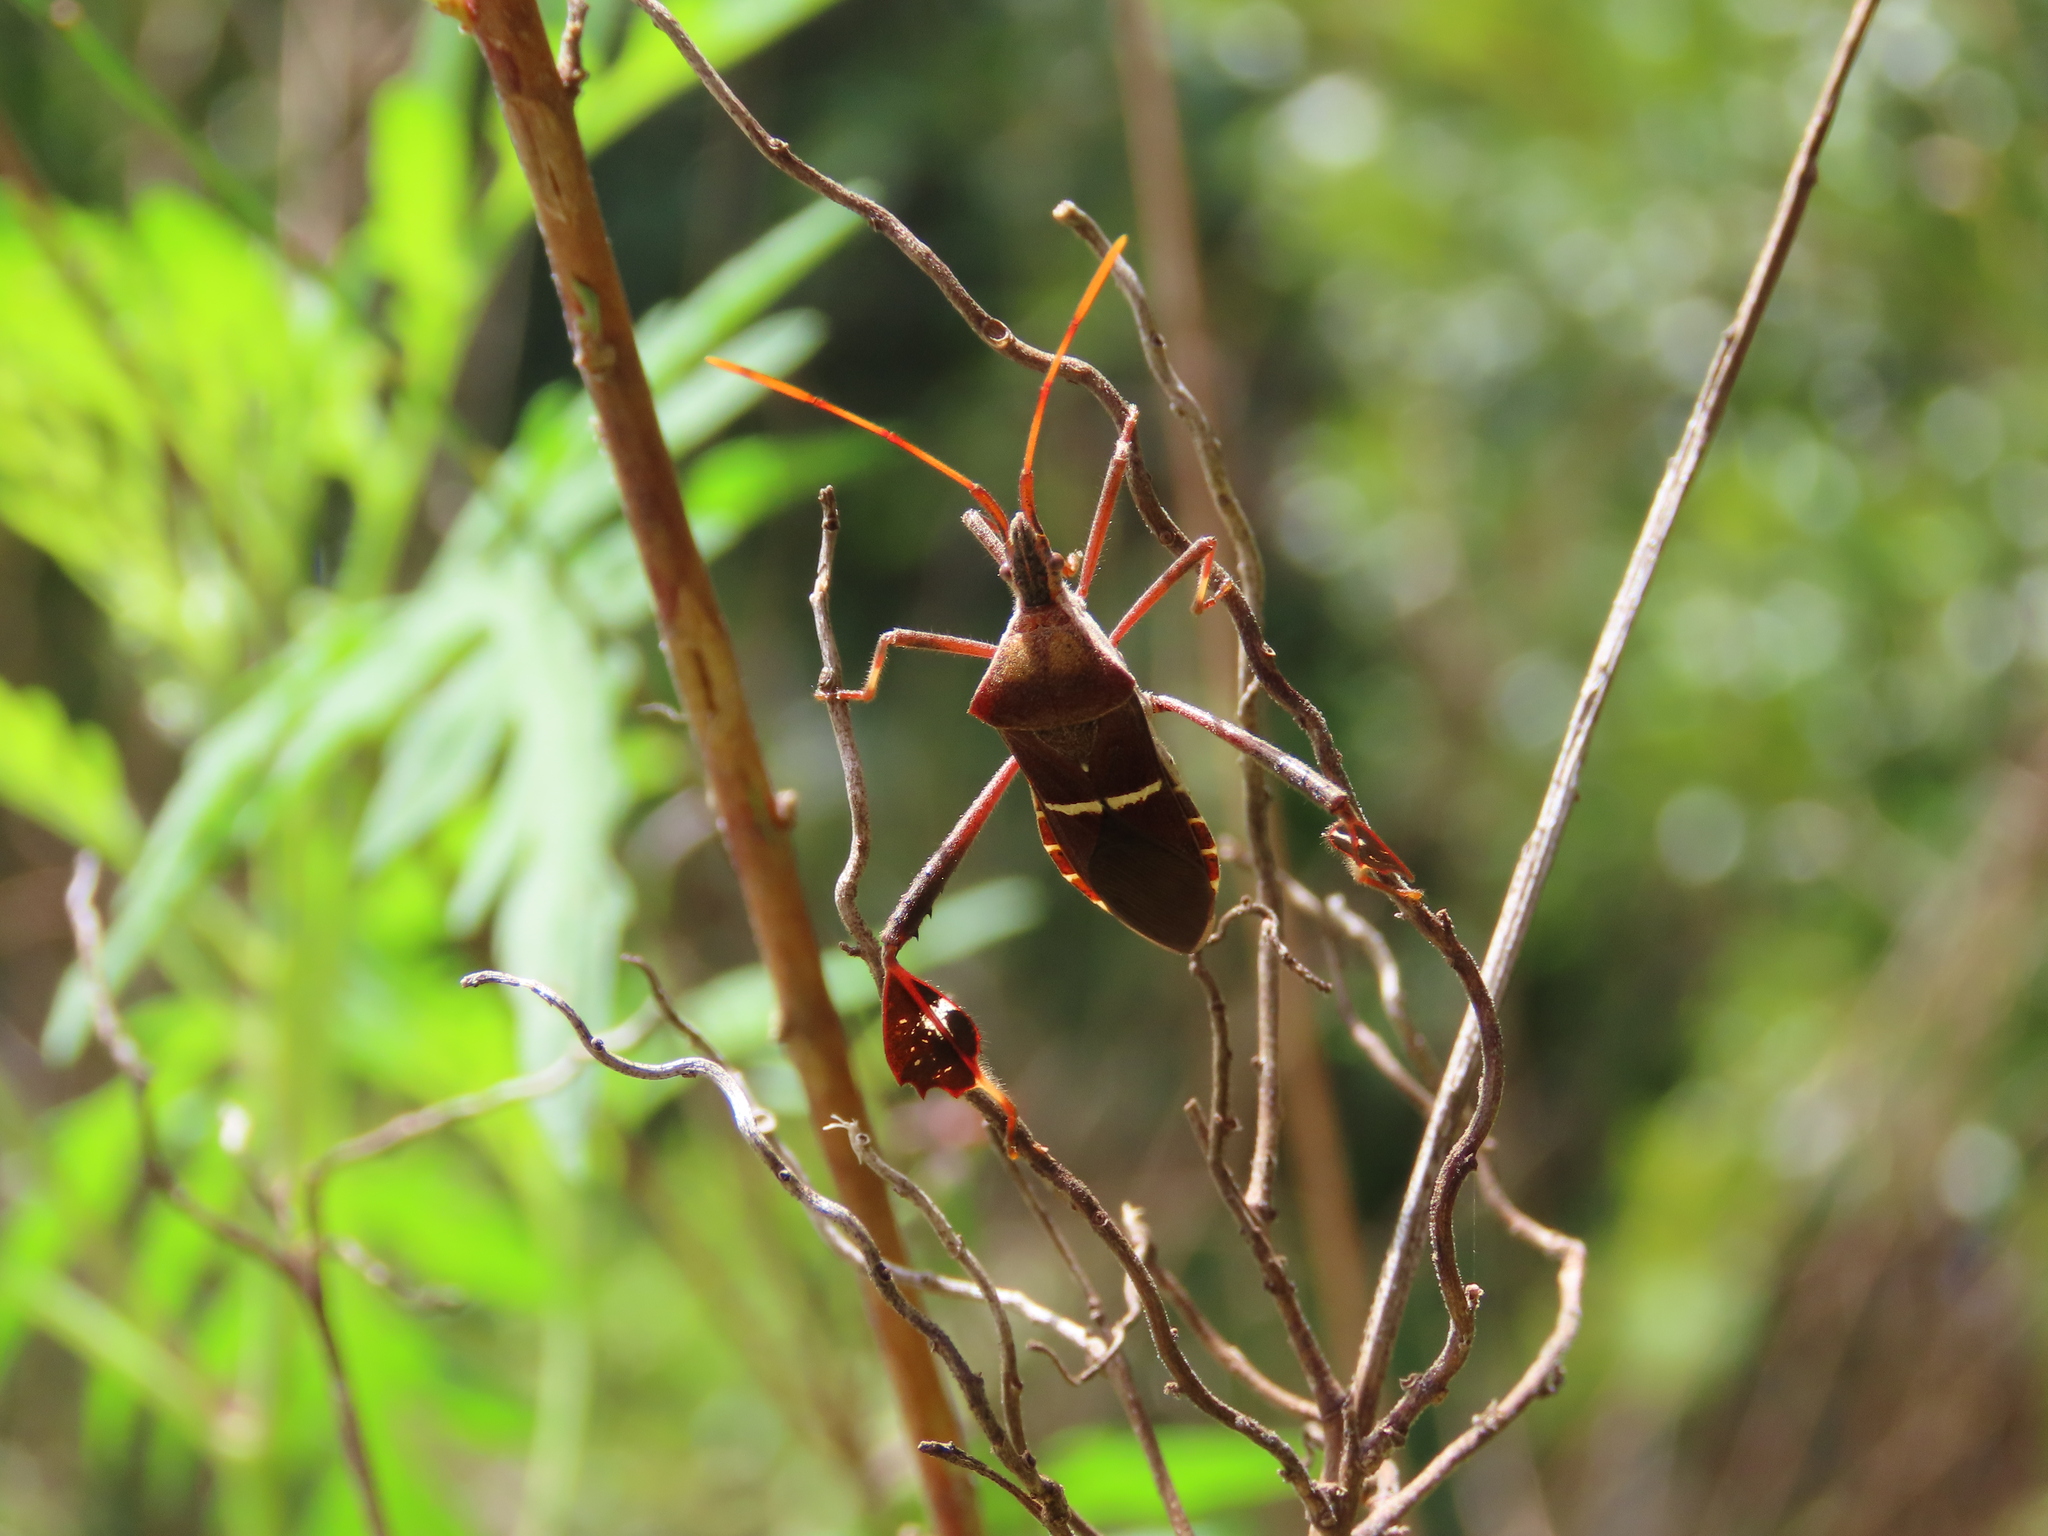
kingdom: Animalia
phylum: Arthropoda
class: Insecta
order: Hemiptera
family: Coreidae
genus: Leptoglossus
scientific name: Leptoglossus phyllopus
